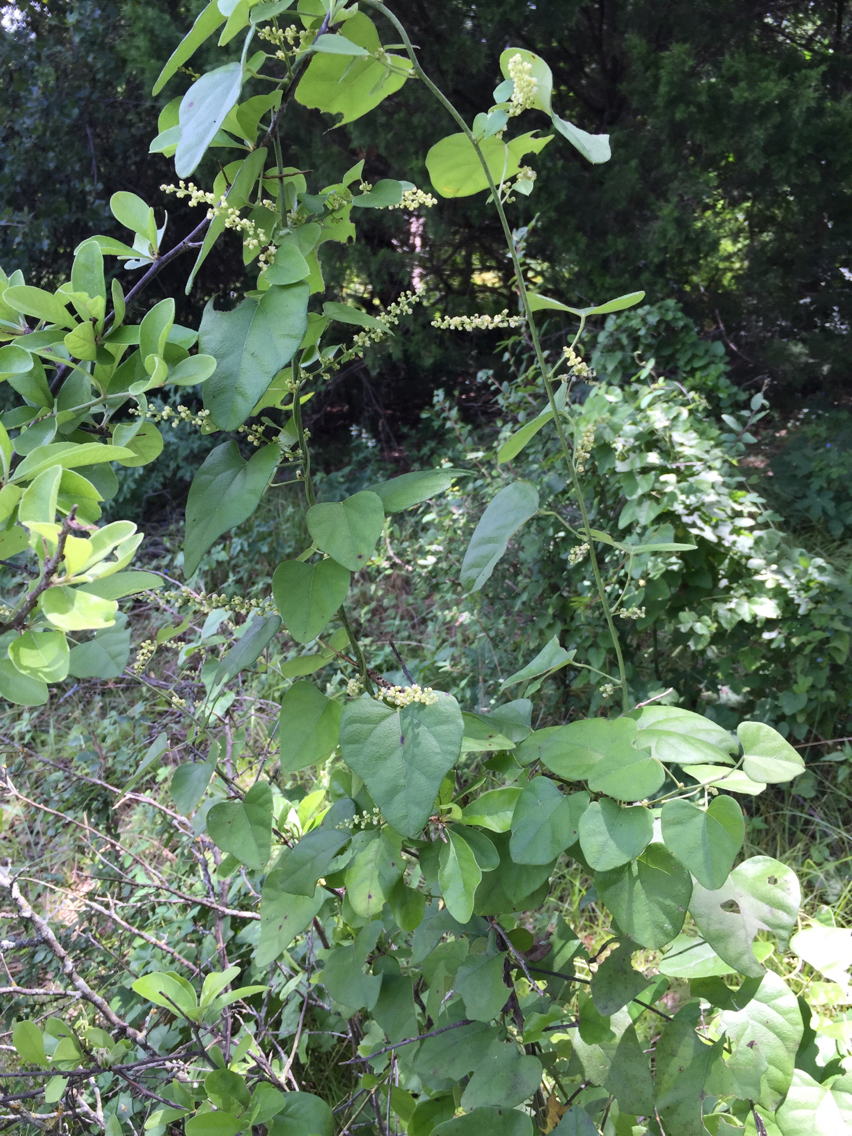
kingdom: Plantae
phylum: Tracheophyta
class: Magnoliopsida
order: Ranunculales
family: Menispermaceae
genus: Cocculus
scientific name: Cocculus carolinus
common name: Carolina moonseed
